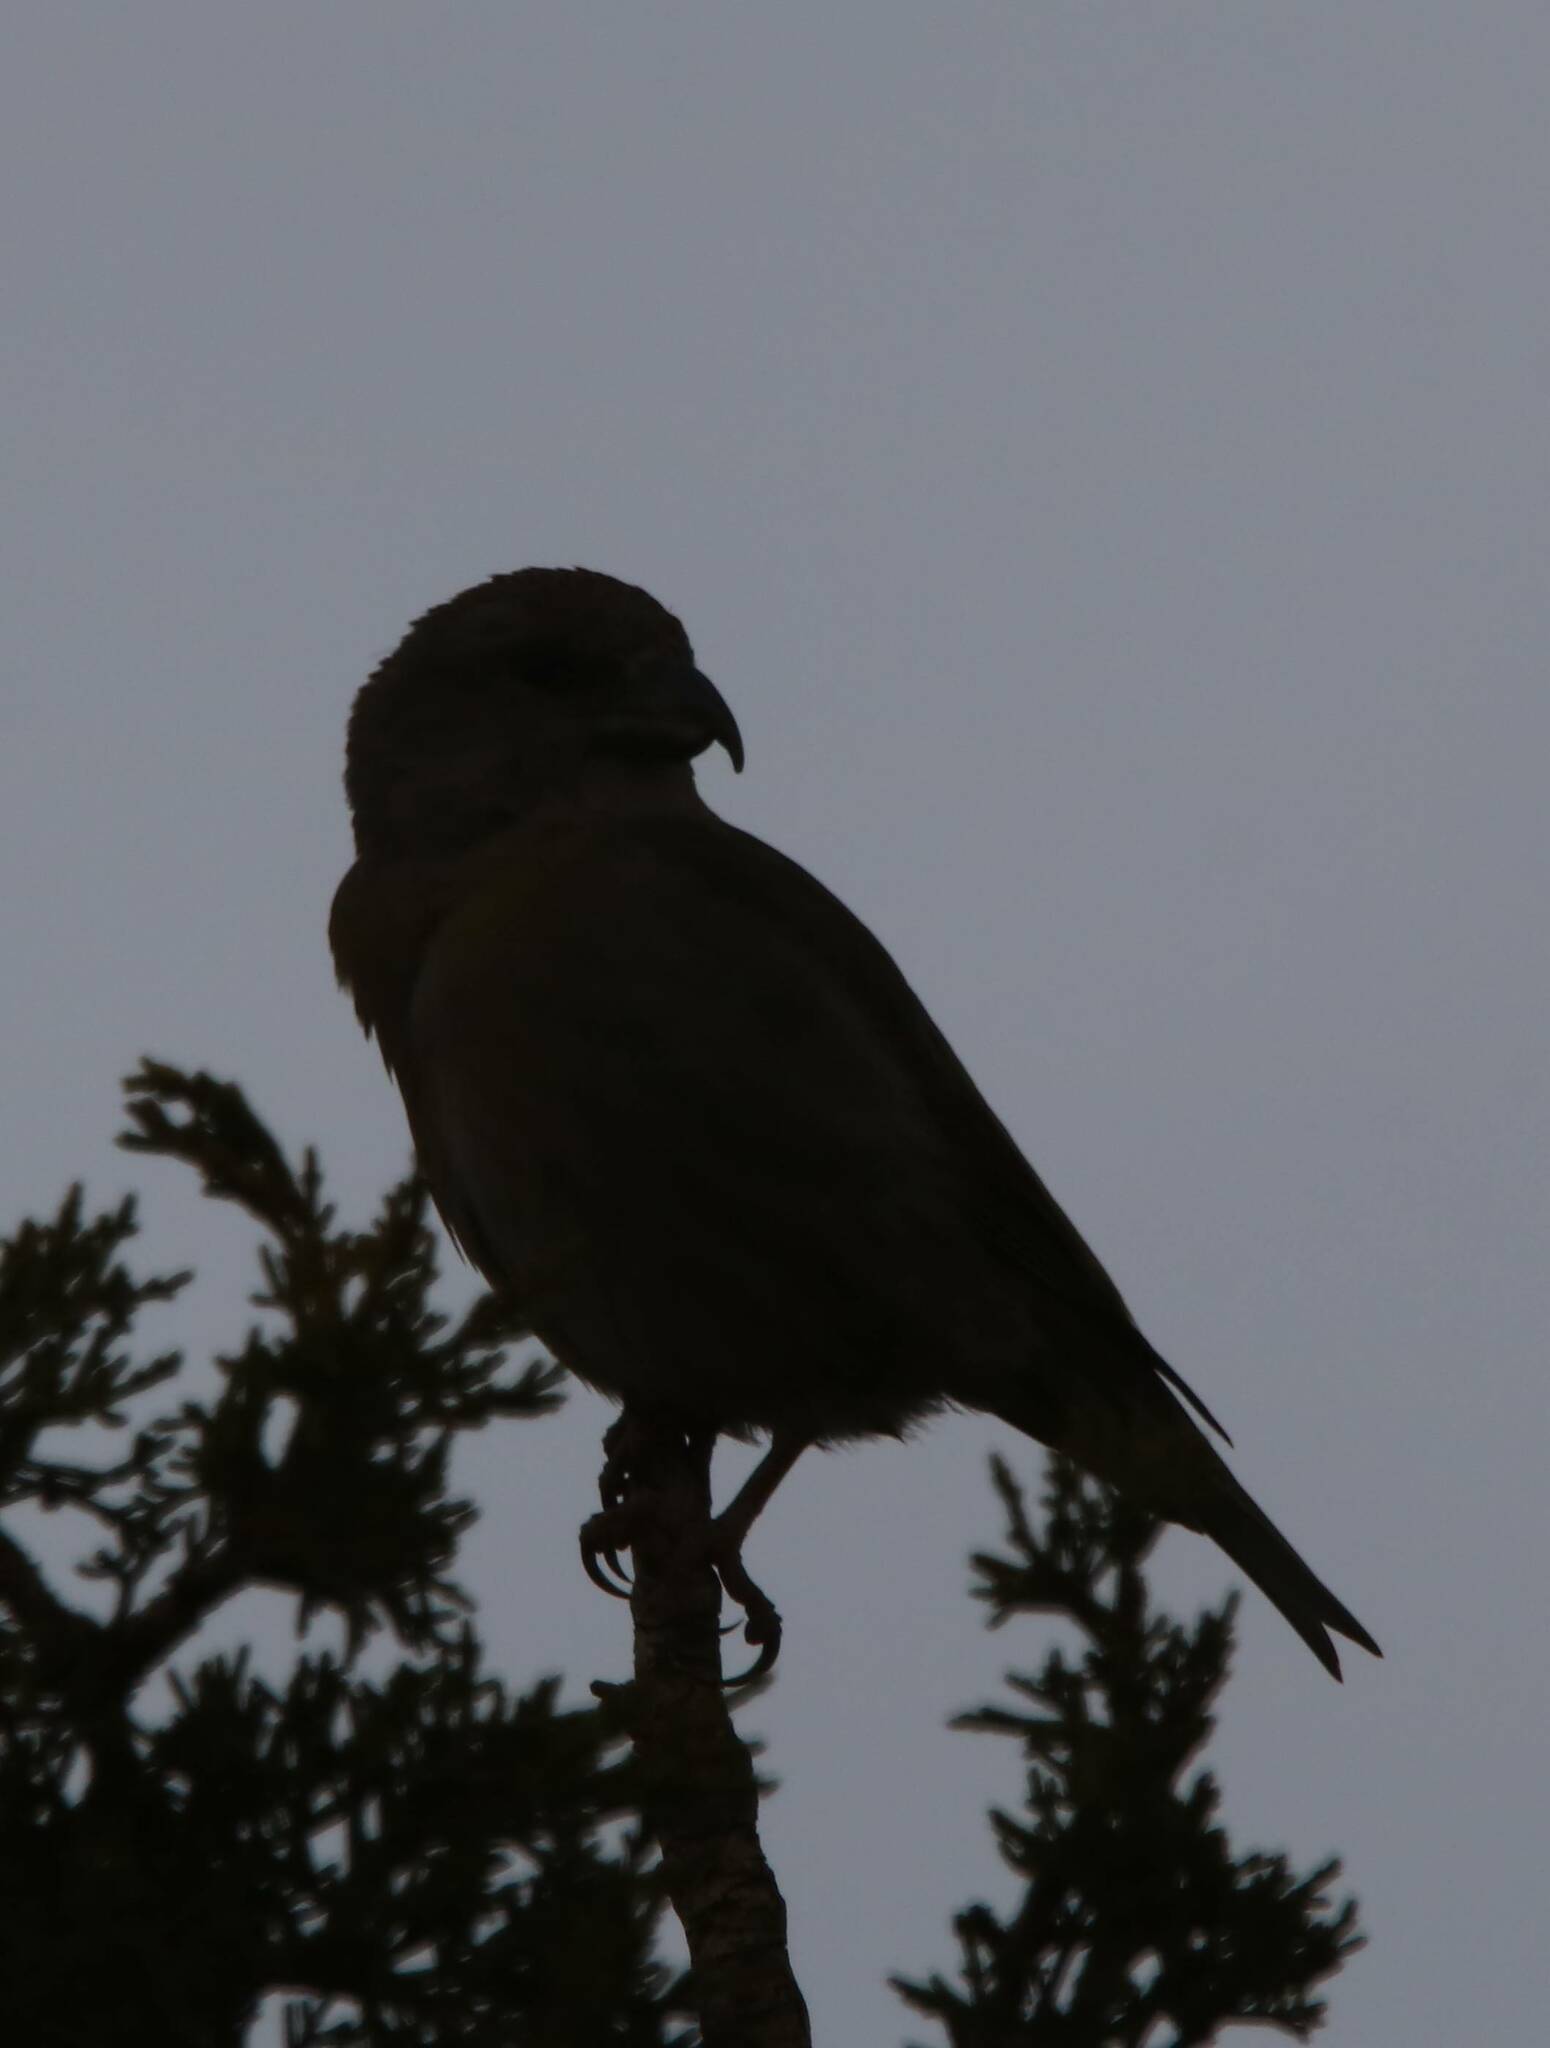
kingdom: Animalia
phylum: Chordata
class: Aves
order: Passeriformes
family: Fringillidae
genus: Loxia
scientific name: Loxia curvirostra
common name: Red crossbill
